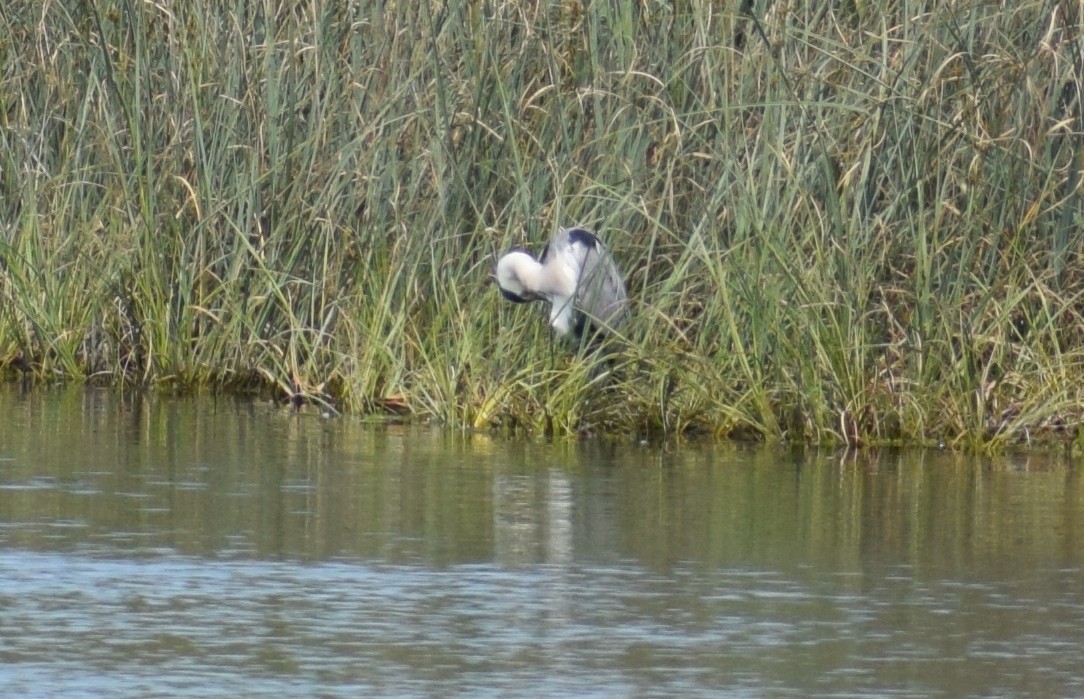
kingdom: Animalia
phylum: Chordata
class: Aves
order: Pelecaniformes
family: Ardeidae
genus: Ardea
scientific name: Ardea cinerea
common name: Grey heron
